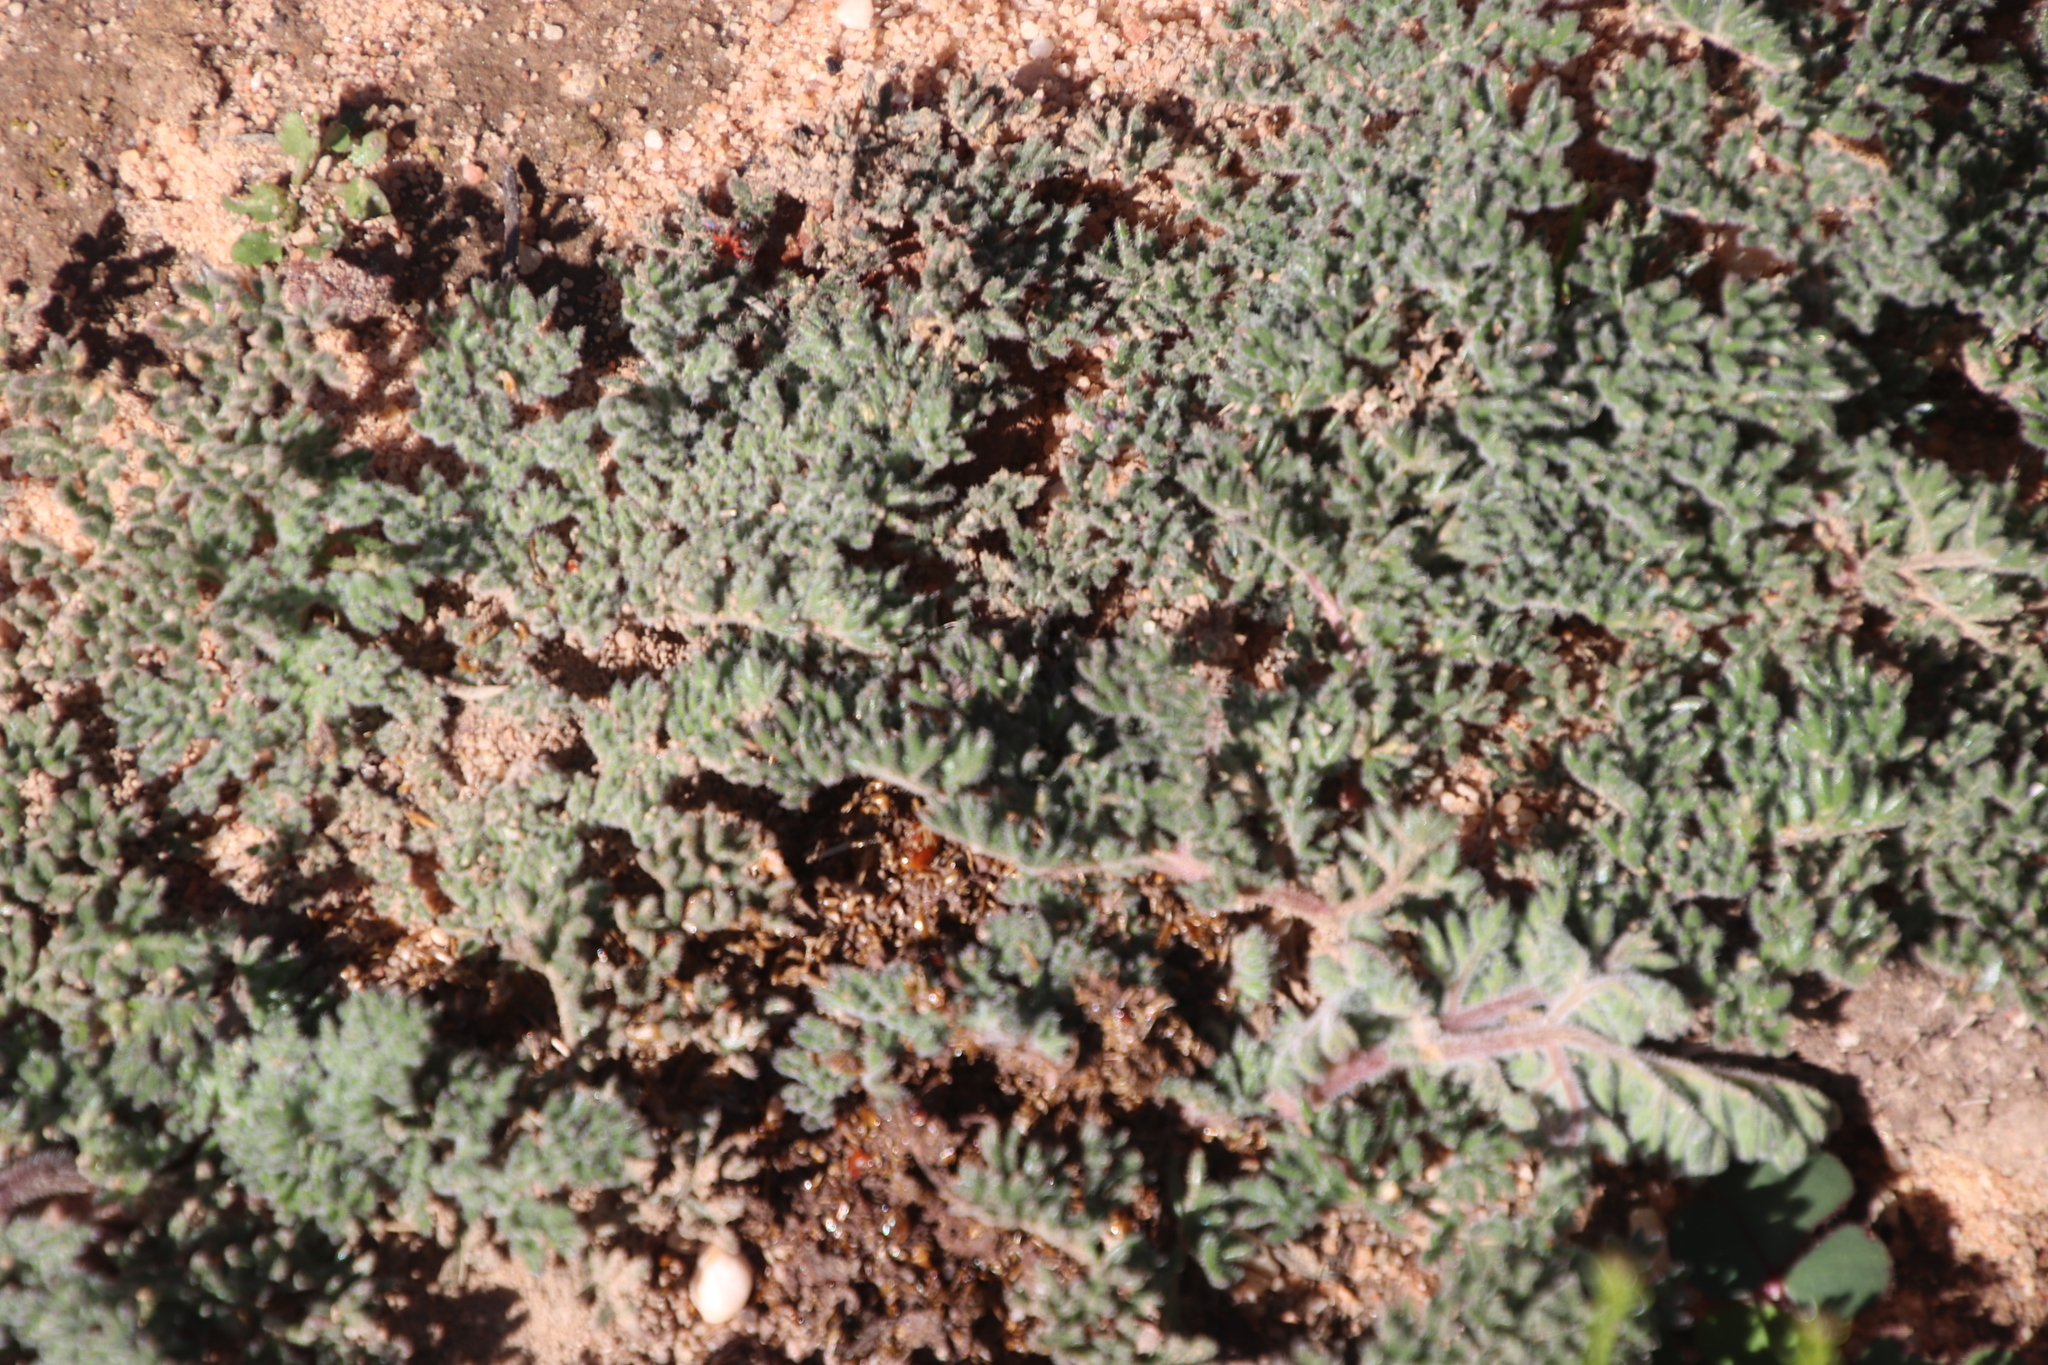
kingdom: Plantae
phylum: Tracheophyta
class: Magnoliopsida
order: Geraniales
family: Geraniaceae
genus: Pelargonium
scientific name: Pelargonium triste
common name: Night-scent pelargonium
